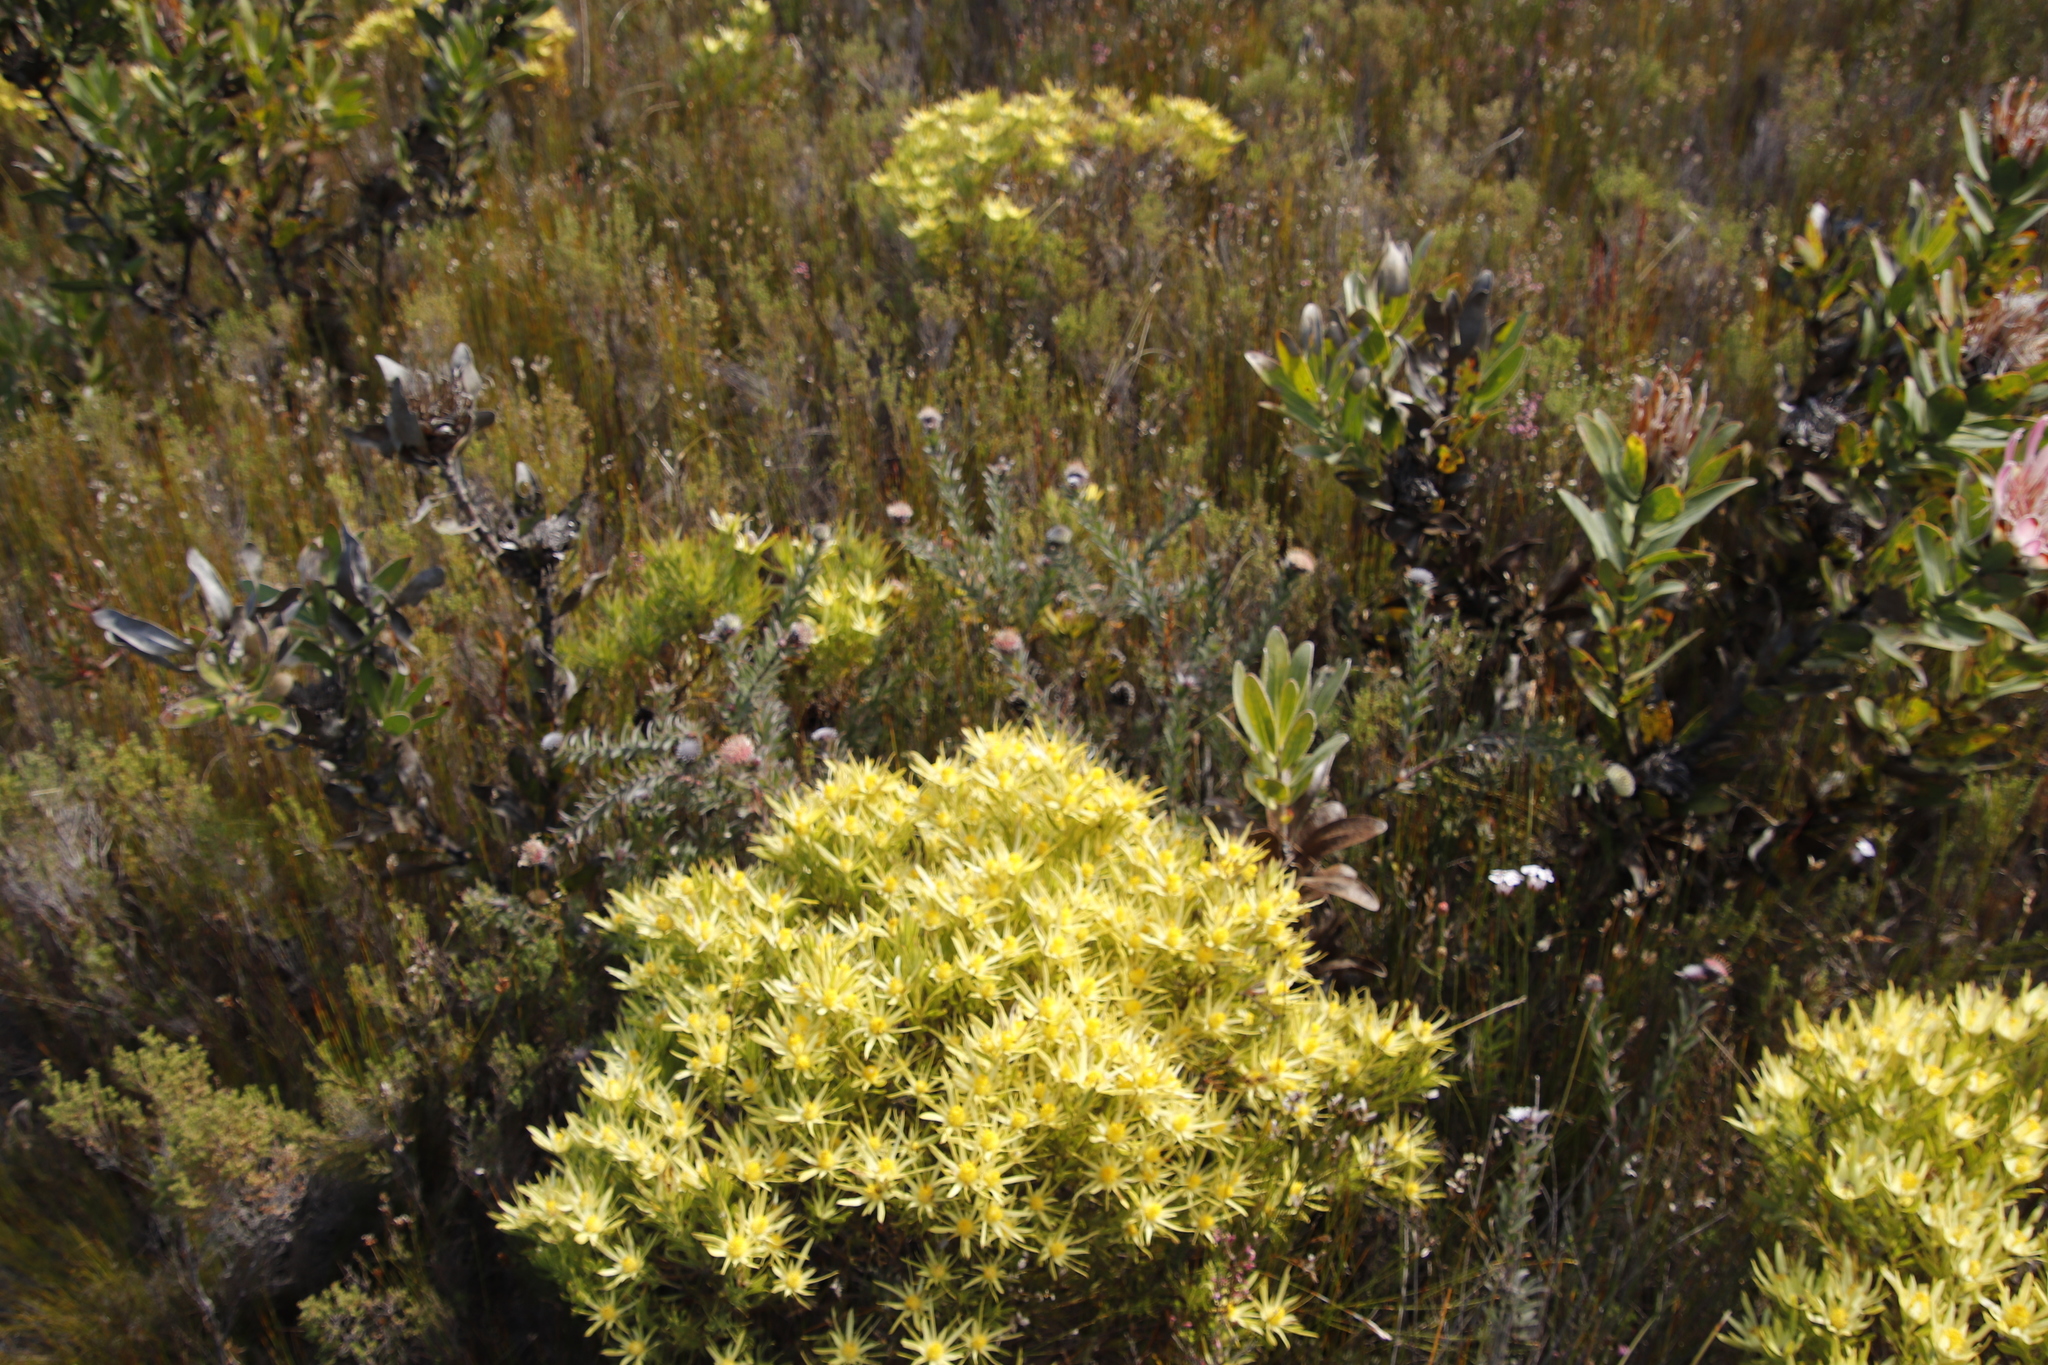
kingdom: Plantae
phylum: Tracheophyta
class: Magnoliopsida
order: Proteales
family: Proteaceae
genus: Leucadendron
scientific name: Leucadendron laureolum
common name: Golden sunshinebush
